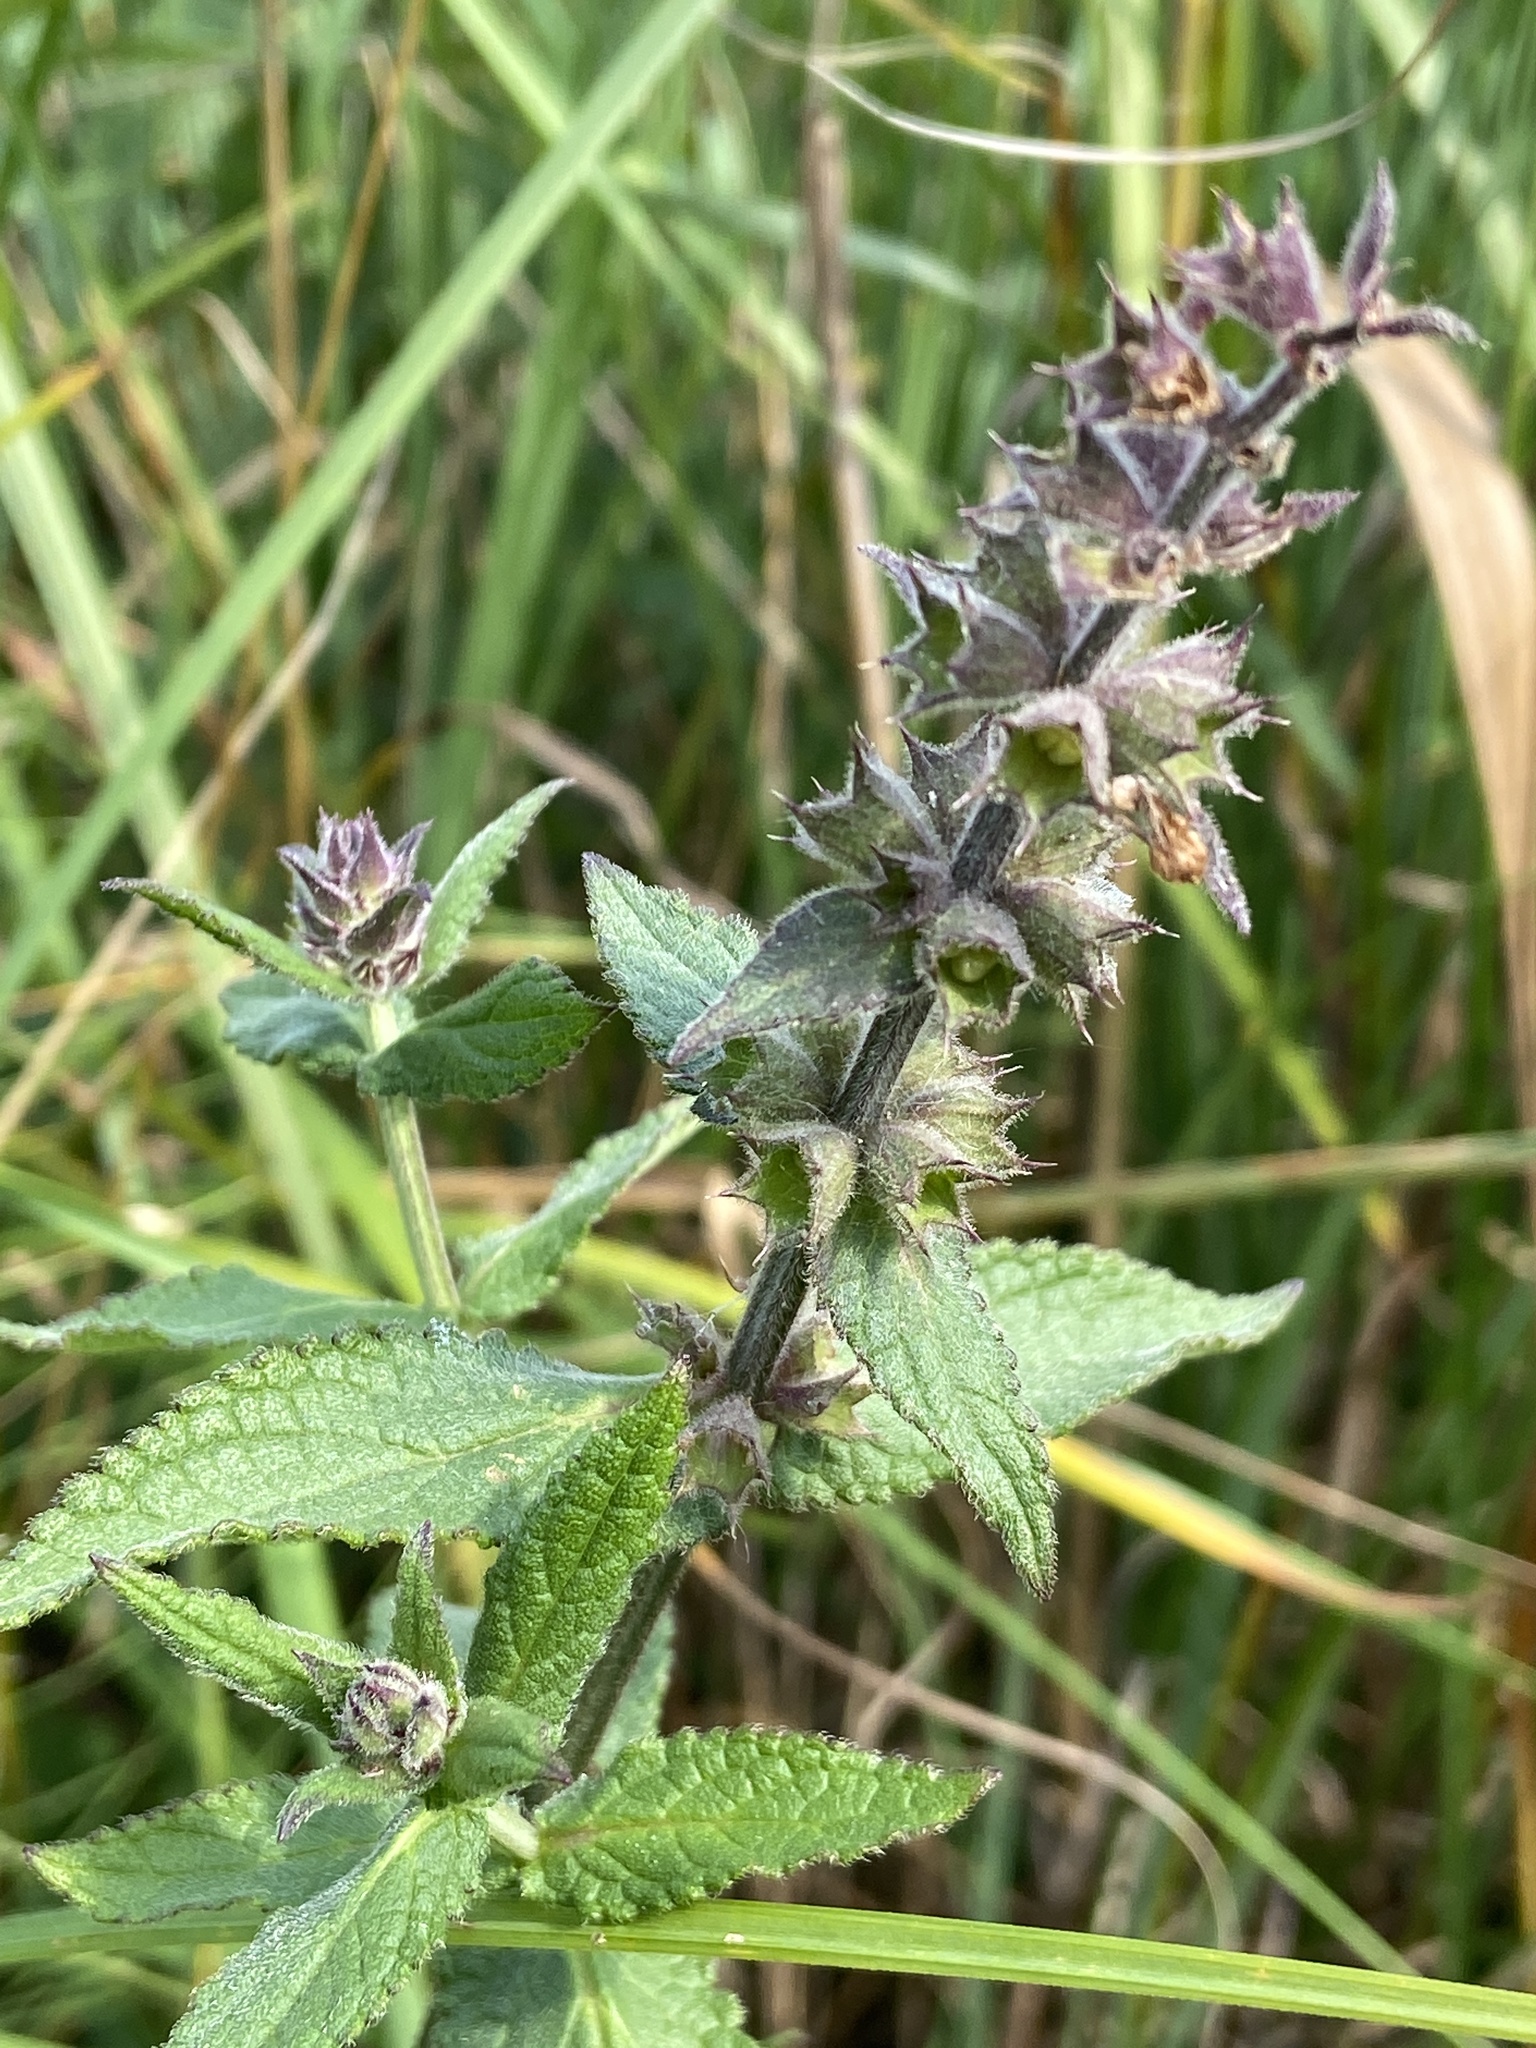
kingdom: Plantae
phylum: Tracheophyta
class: Magnoliopsida
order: Lamiales
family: Lamiaceae
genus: Stachys
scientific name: Stachys palustris
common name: Marsh woundwort
